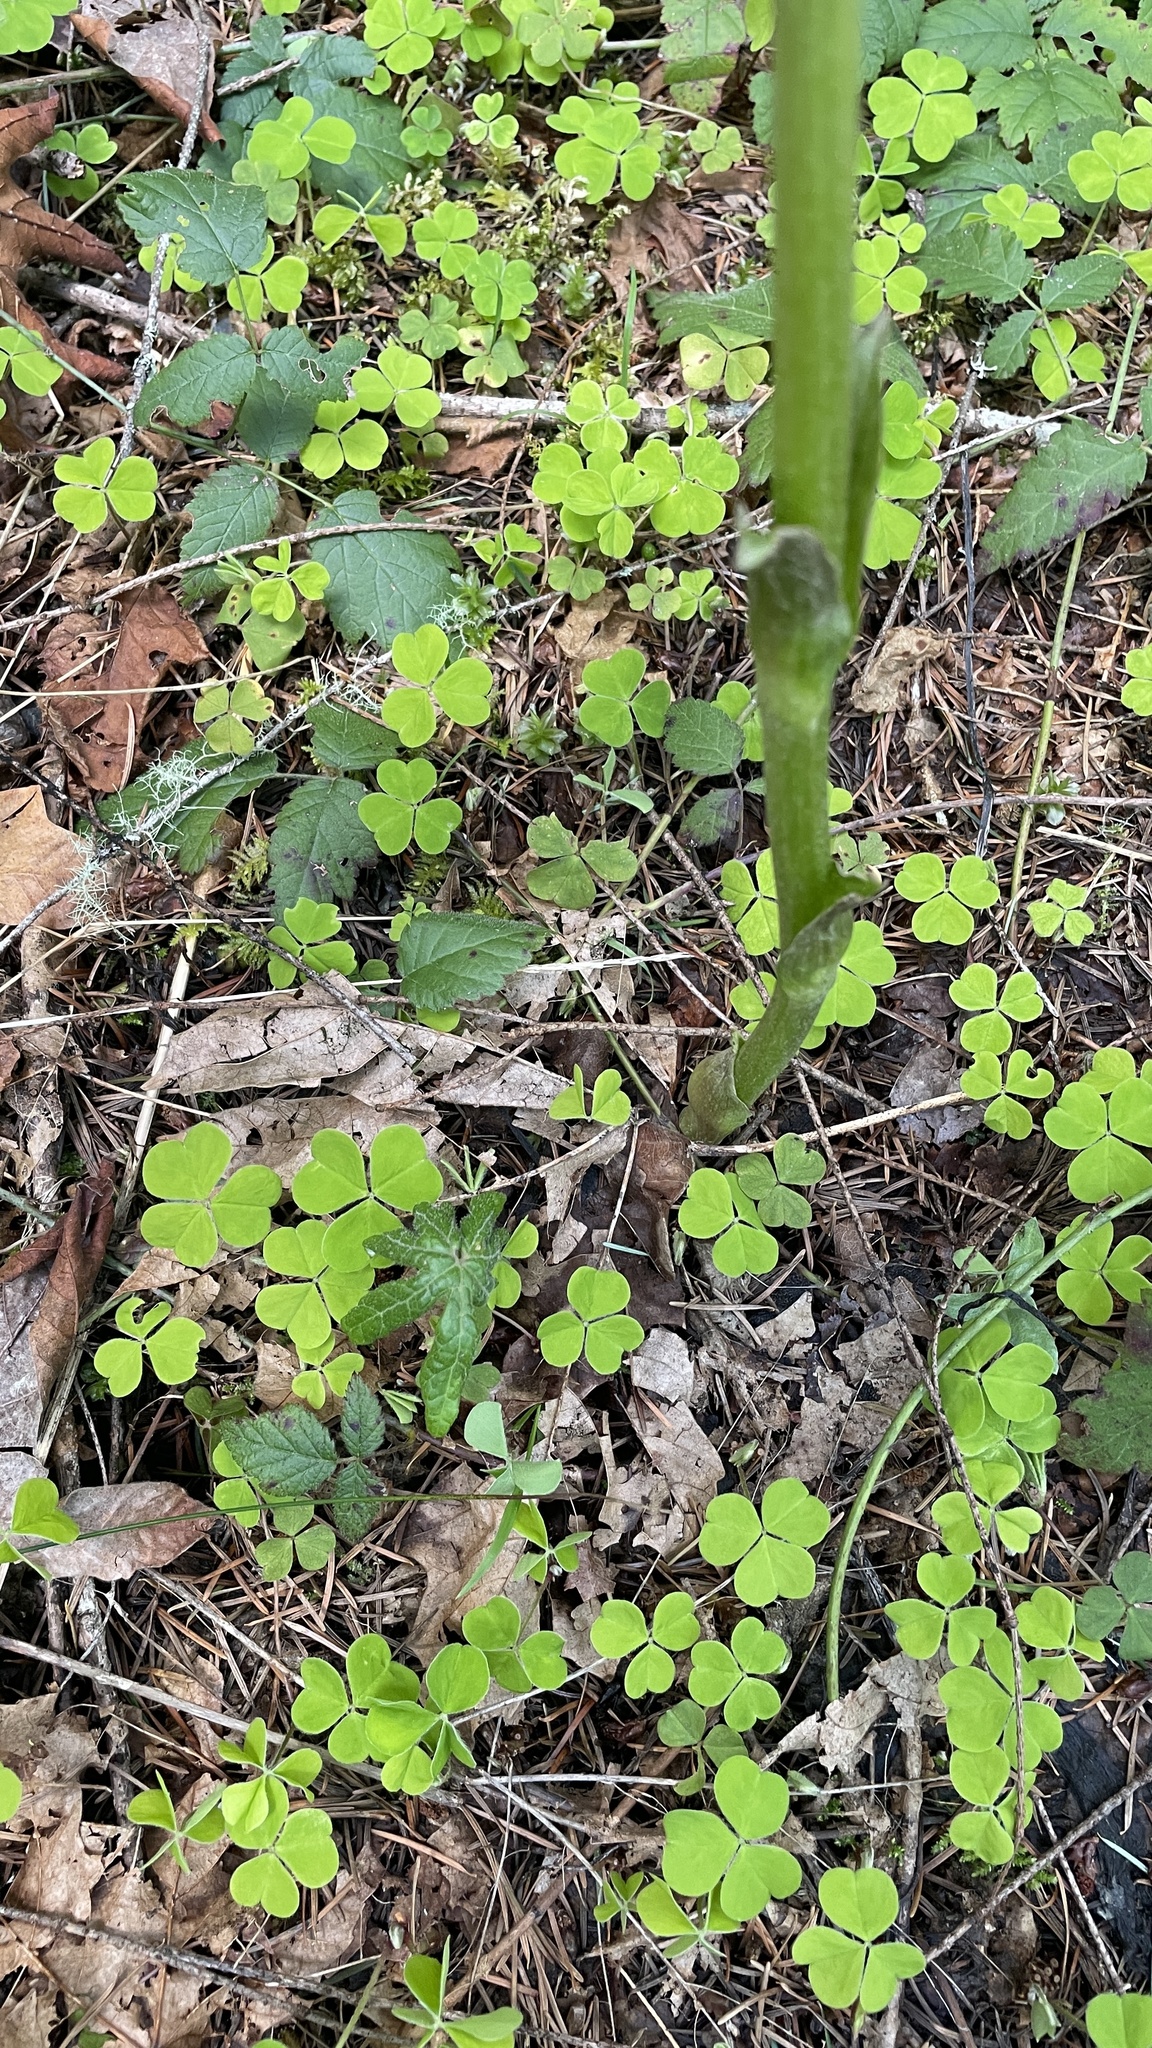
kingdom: Plantae
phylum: Tracheophyta
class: Magnoliopsida
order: Asterales
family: Asteraceae
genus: Petasites
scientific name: Petasites frigidus
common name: Arctic butterbur
